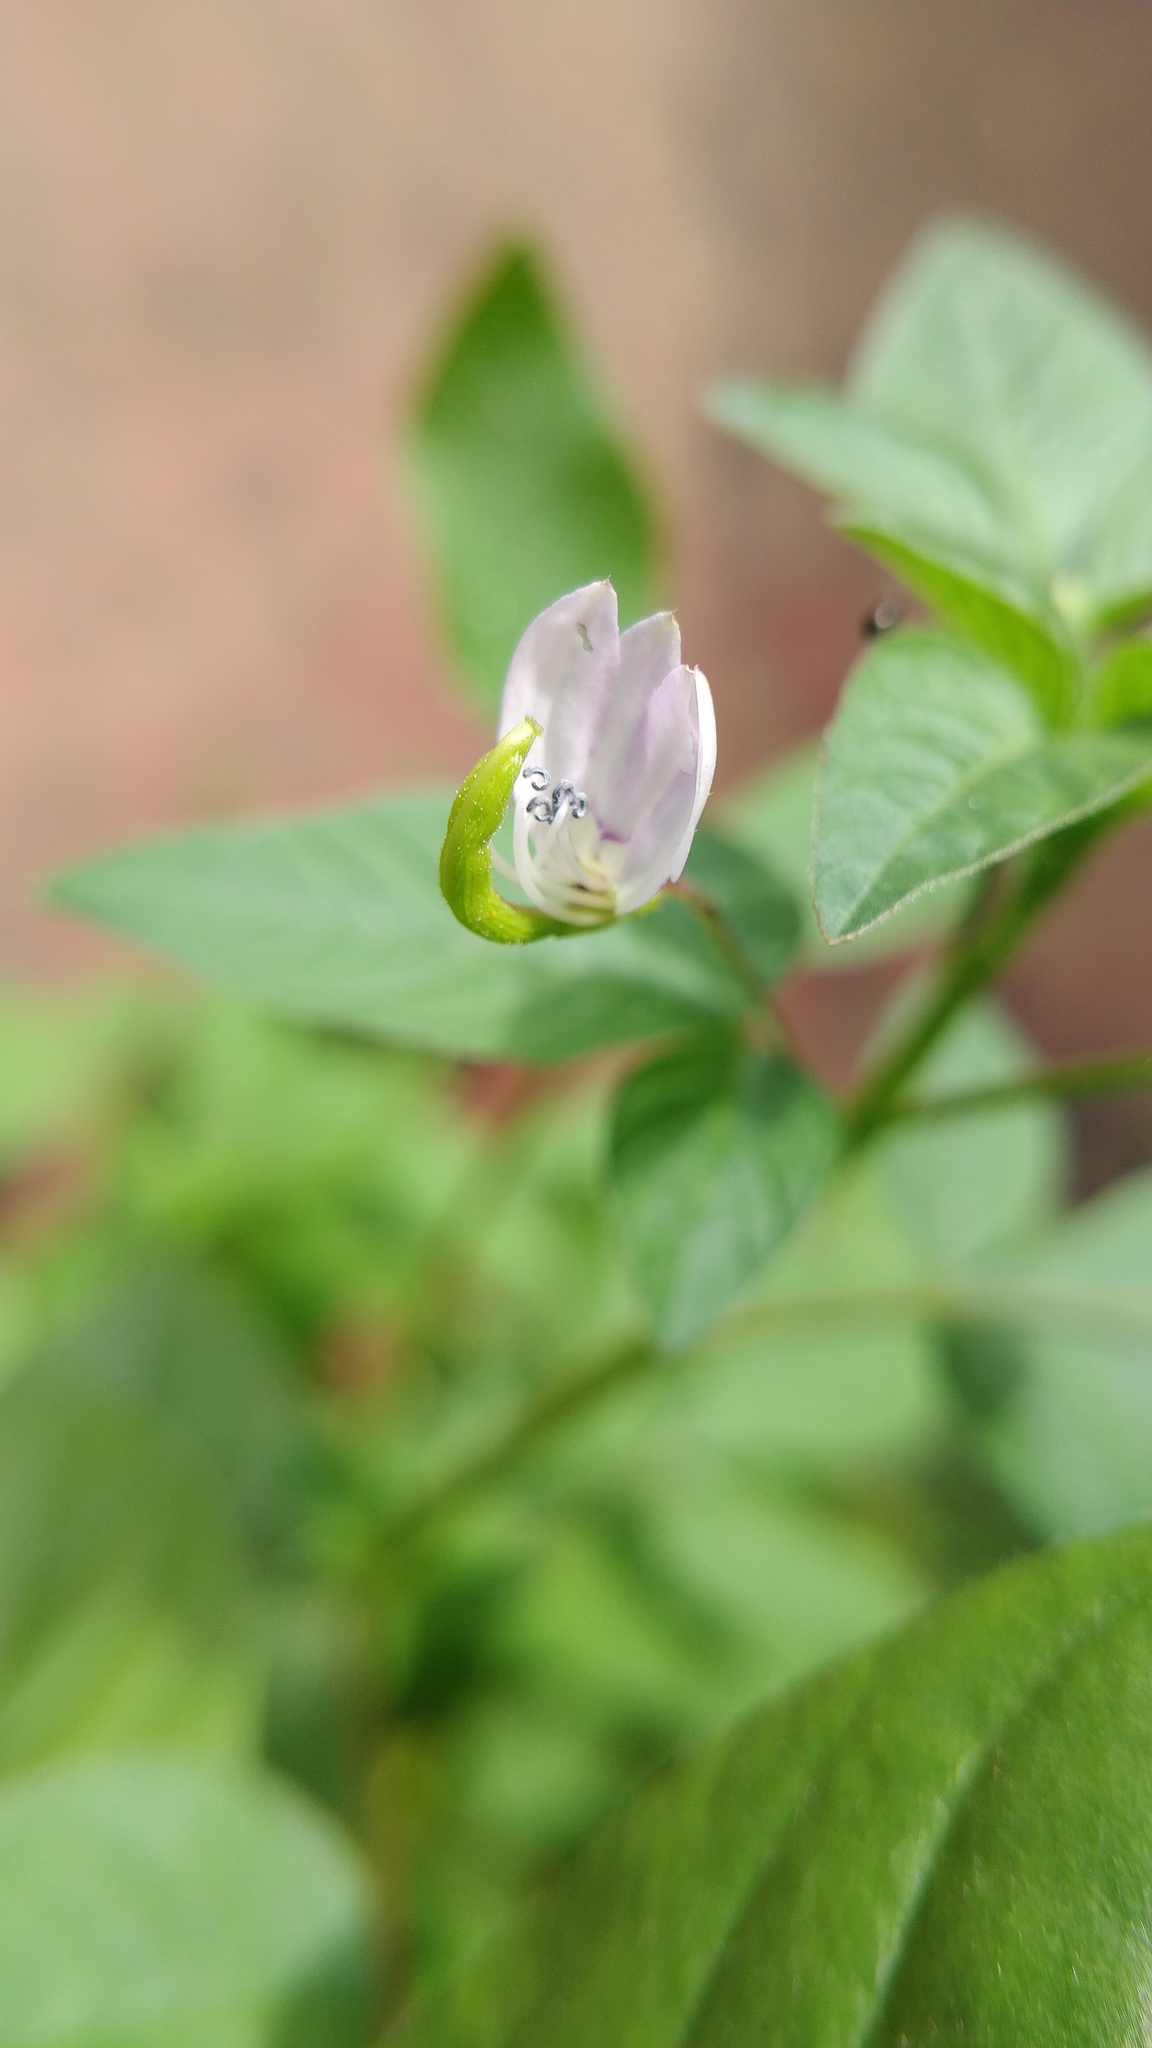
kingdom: Plantae
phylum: Tracheophyta
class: Magnoliopsida
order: Brassicales
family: Cleomaceae
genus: Sieruela
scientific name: Sieruela rutidosperma
